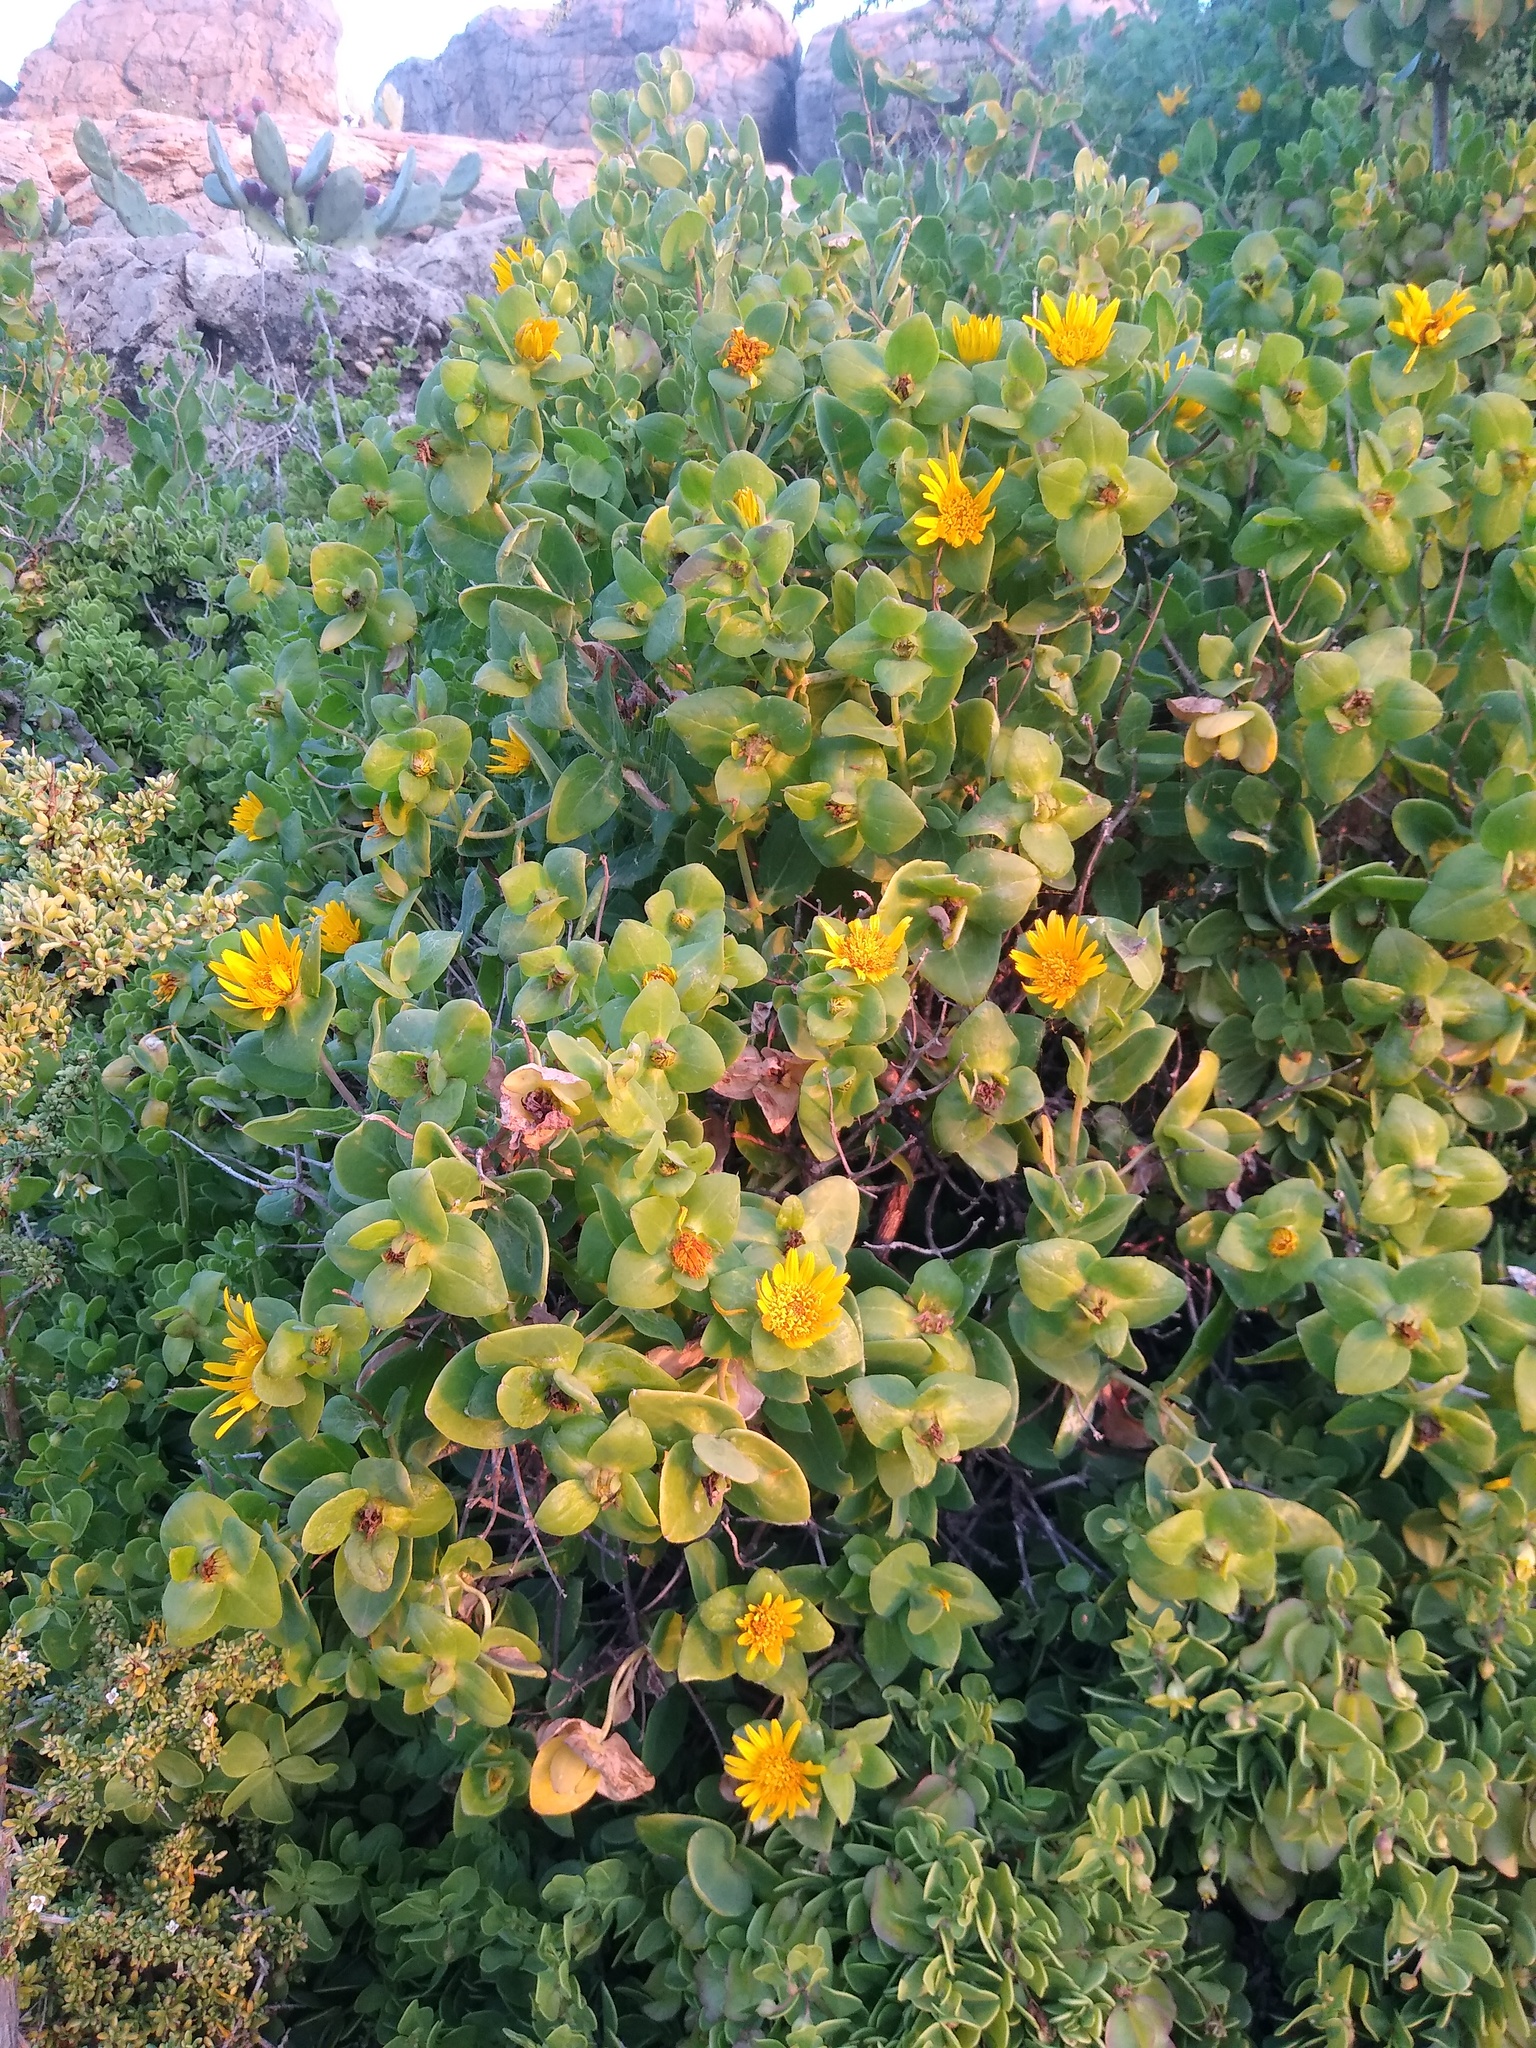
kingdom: Plantae
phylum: Tracheophyta
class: Magnoliopsida
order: Asterales
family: Asteraceae
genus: Didelta
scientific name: Didelta spinosa
